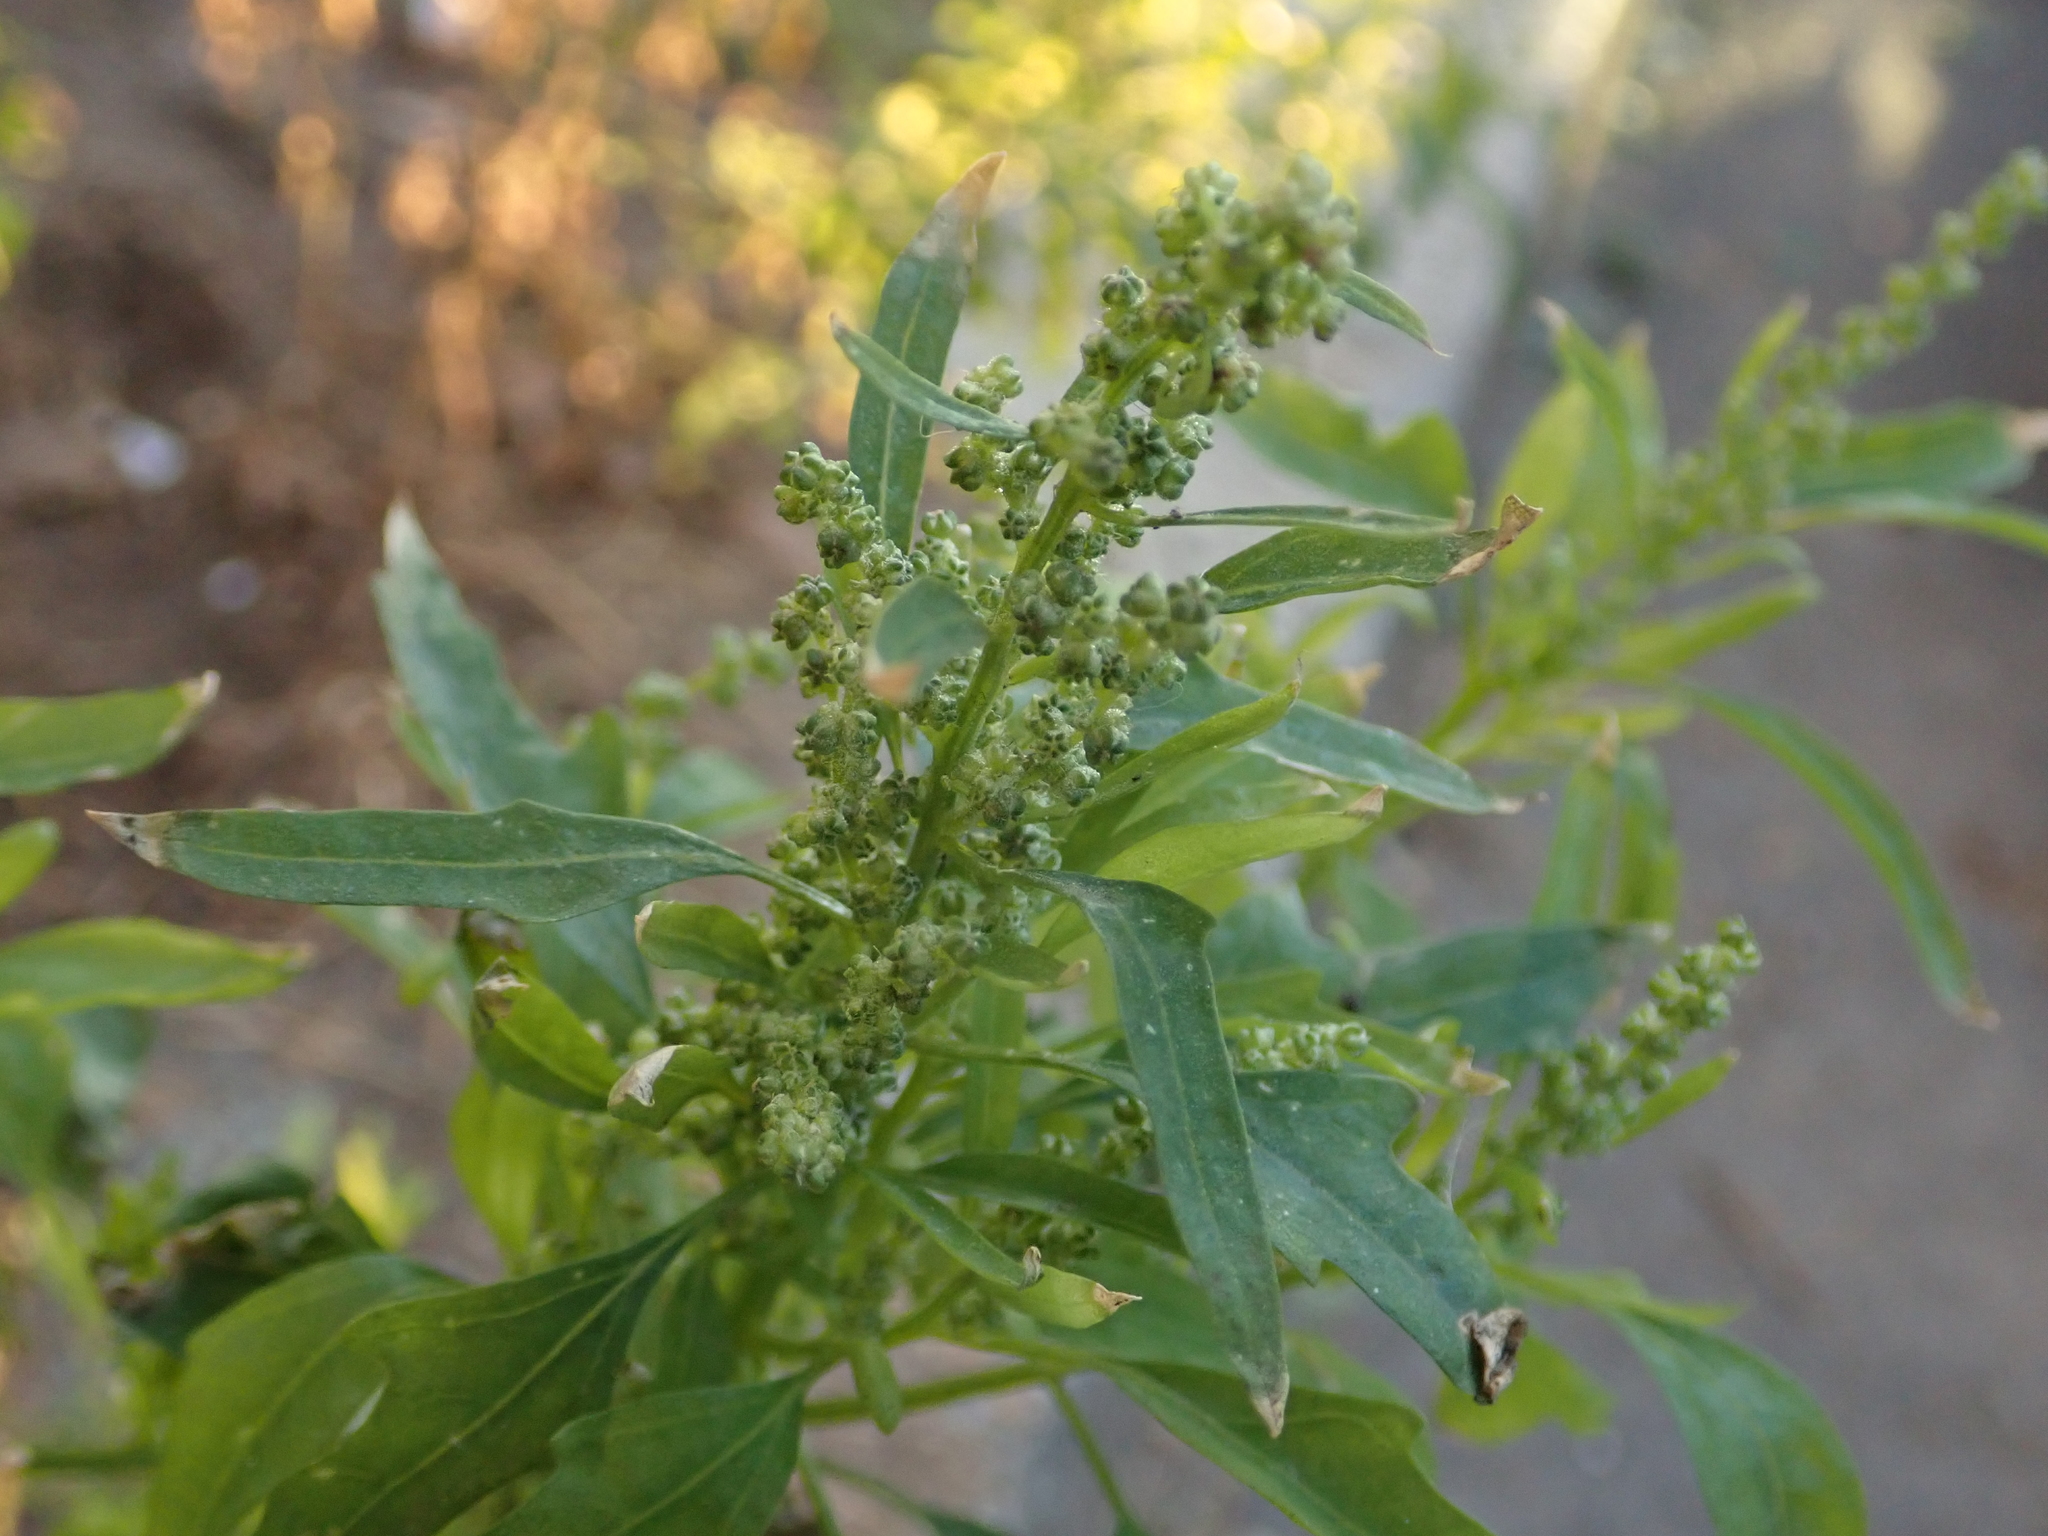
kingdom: Plantae
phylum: Tracheophyta
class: Magnoliopsida
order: Caryophyllales
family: Amaranthaceae
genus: Chenopodium
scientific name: Chenopodium album
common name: Fat-hen
